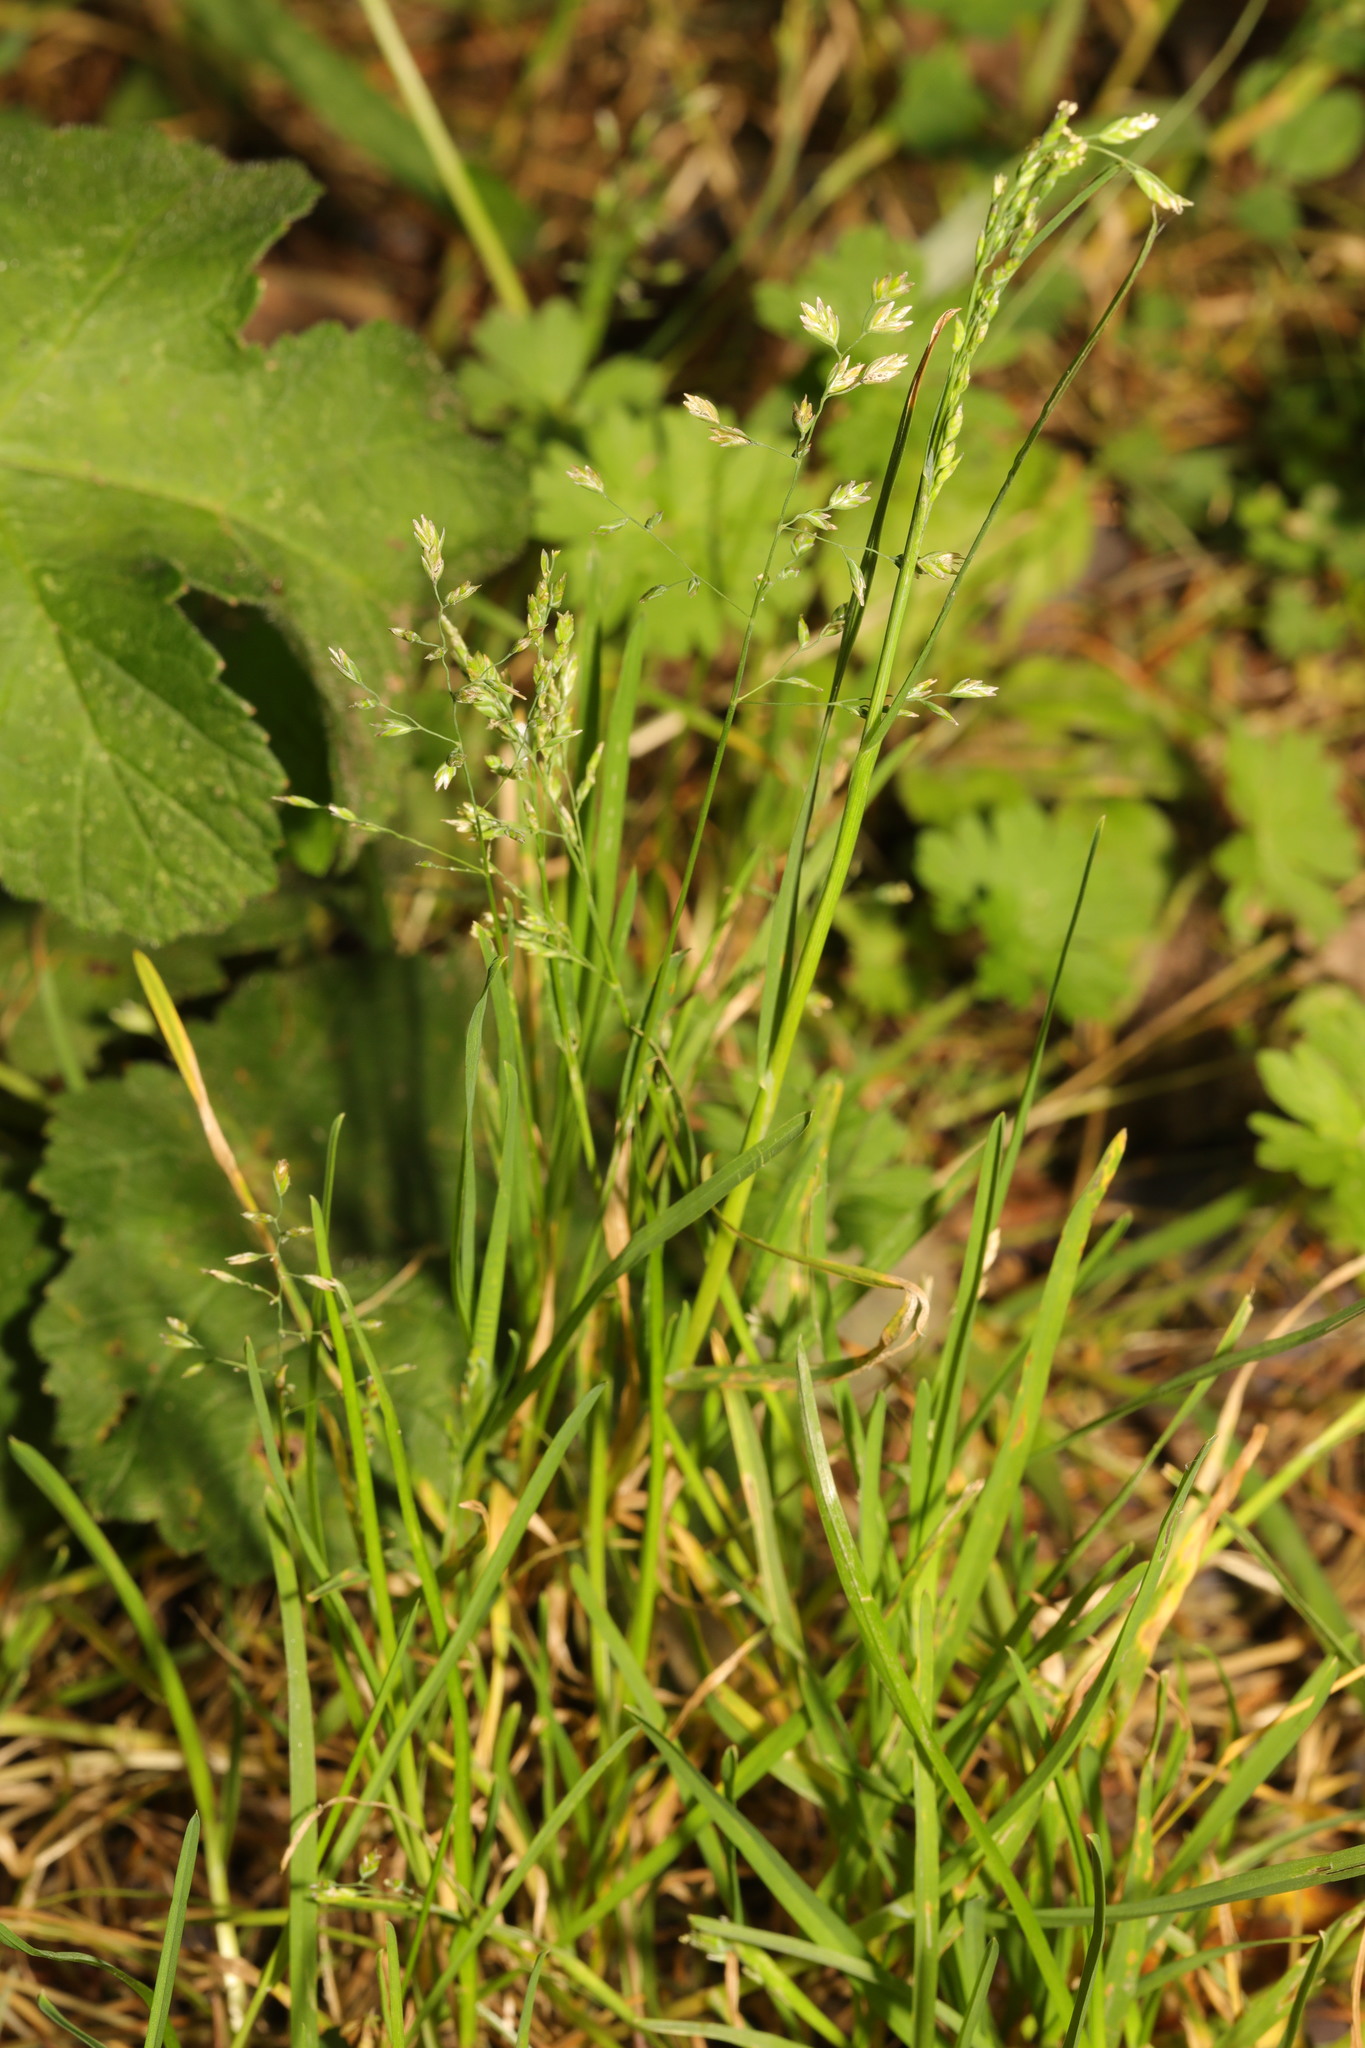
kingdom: Plantae
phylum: Tracheophyta
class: Liliopsida
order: Poales
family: Poaceae
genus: Poa
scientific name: Poa annua
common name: Annual bluegrass
